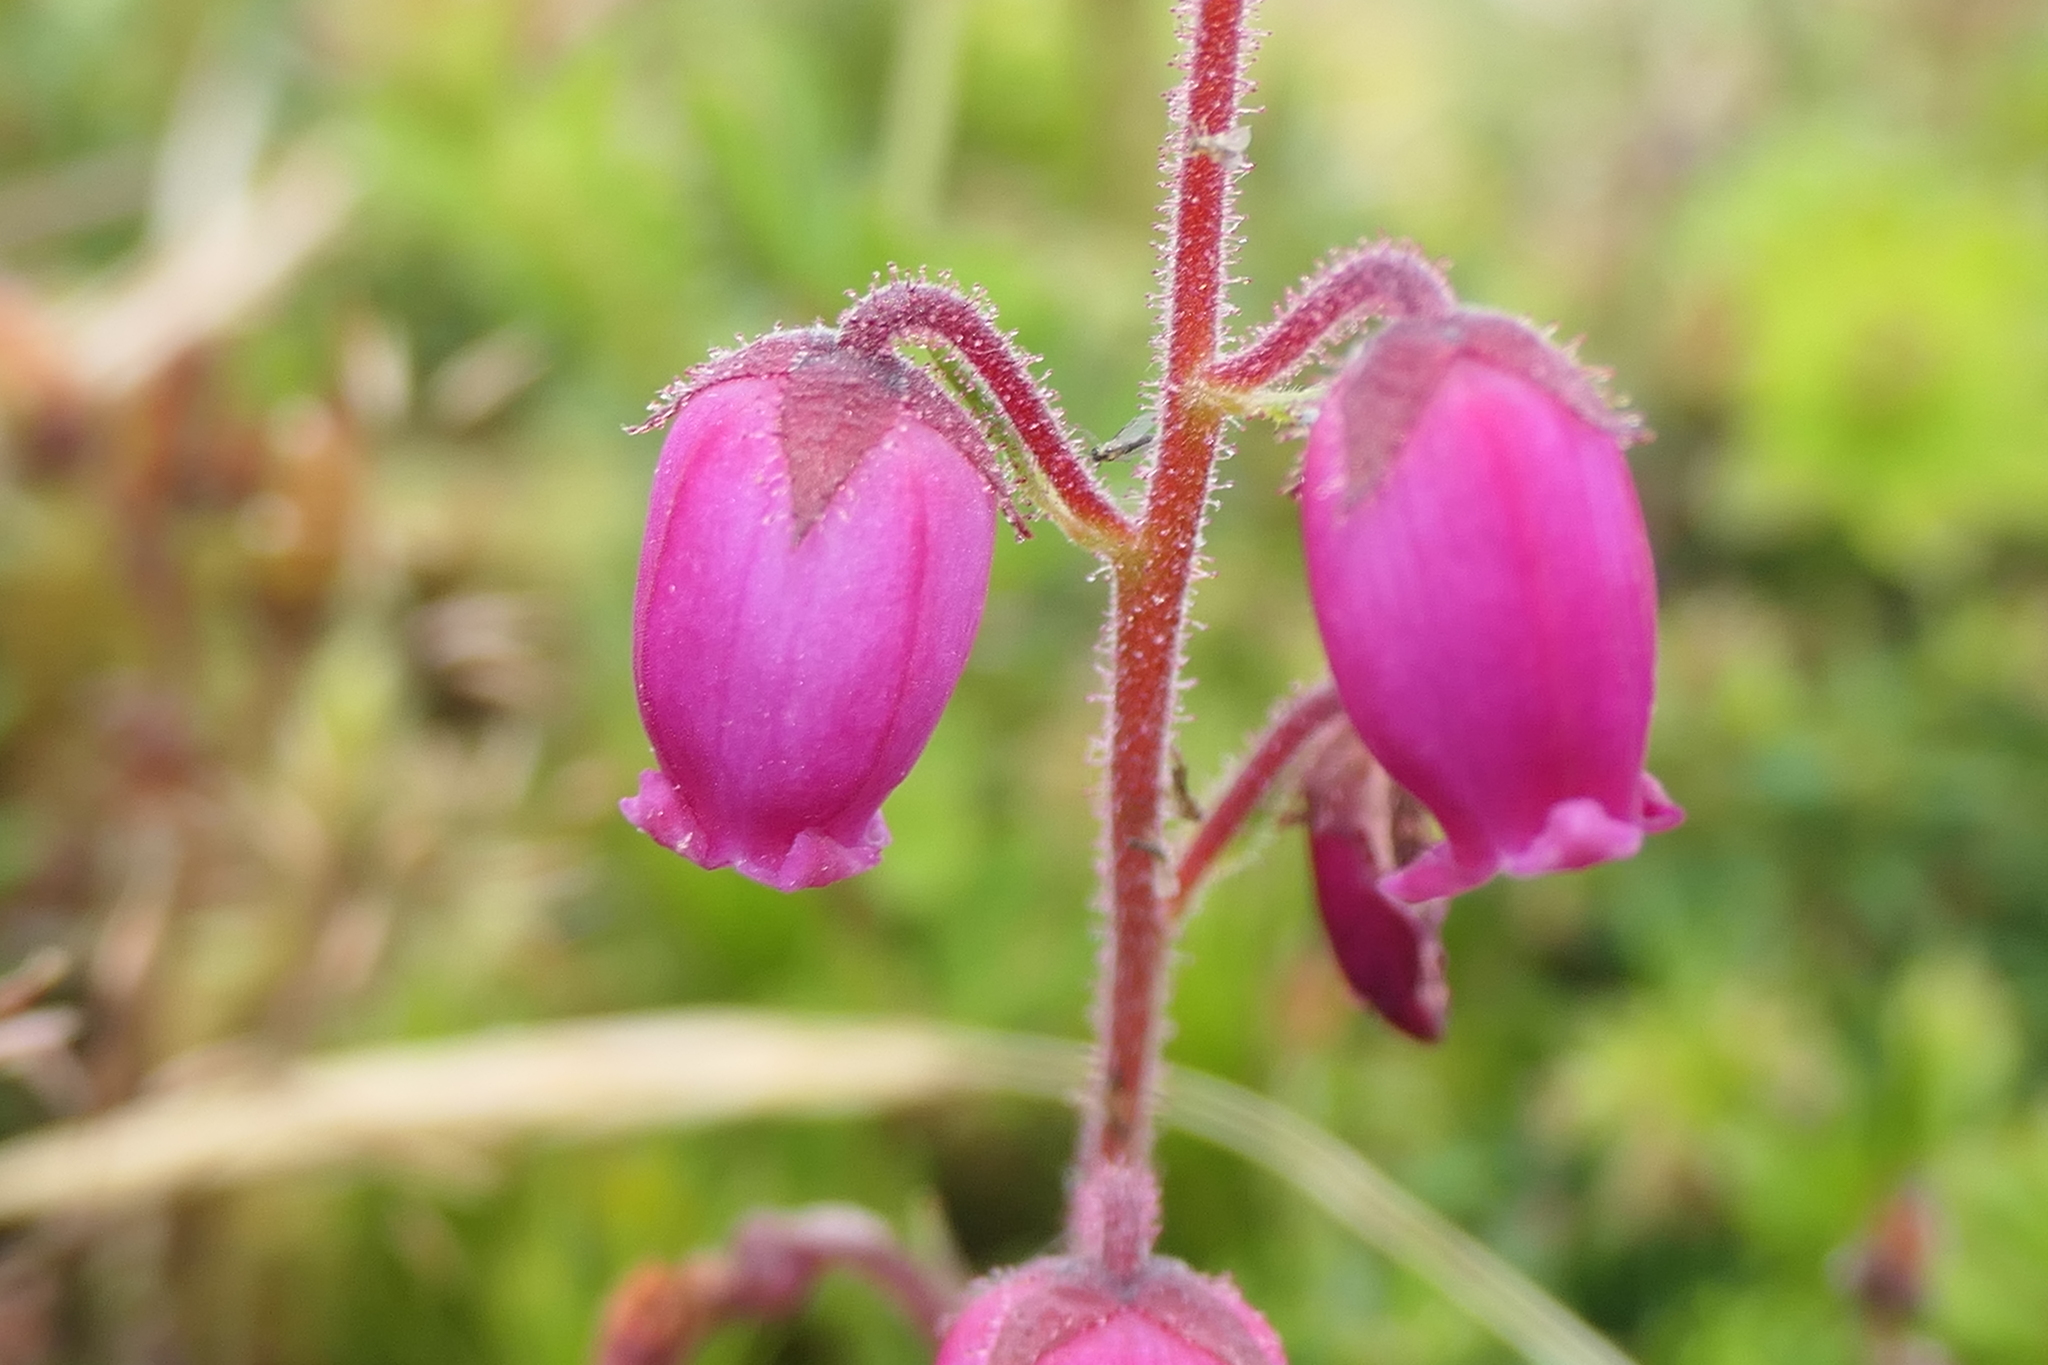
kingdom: Plantae
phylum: Tracheophyta
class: Magnoliopsida
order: Ericales
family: Ericaceae
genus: Daboecia
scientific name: Daboecia cantabrica
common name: St. dabeoc's-heath
